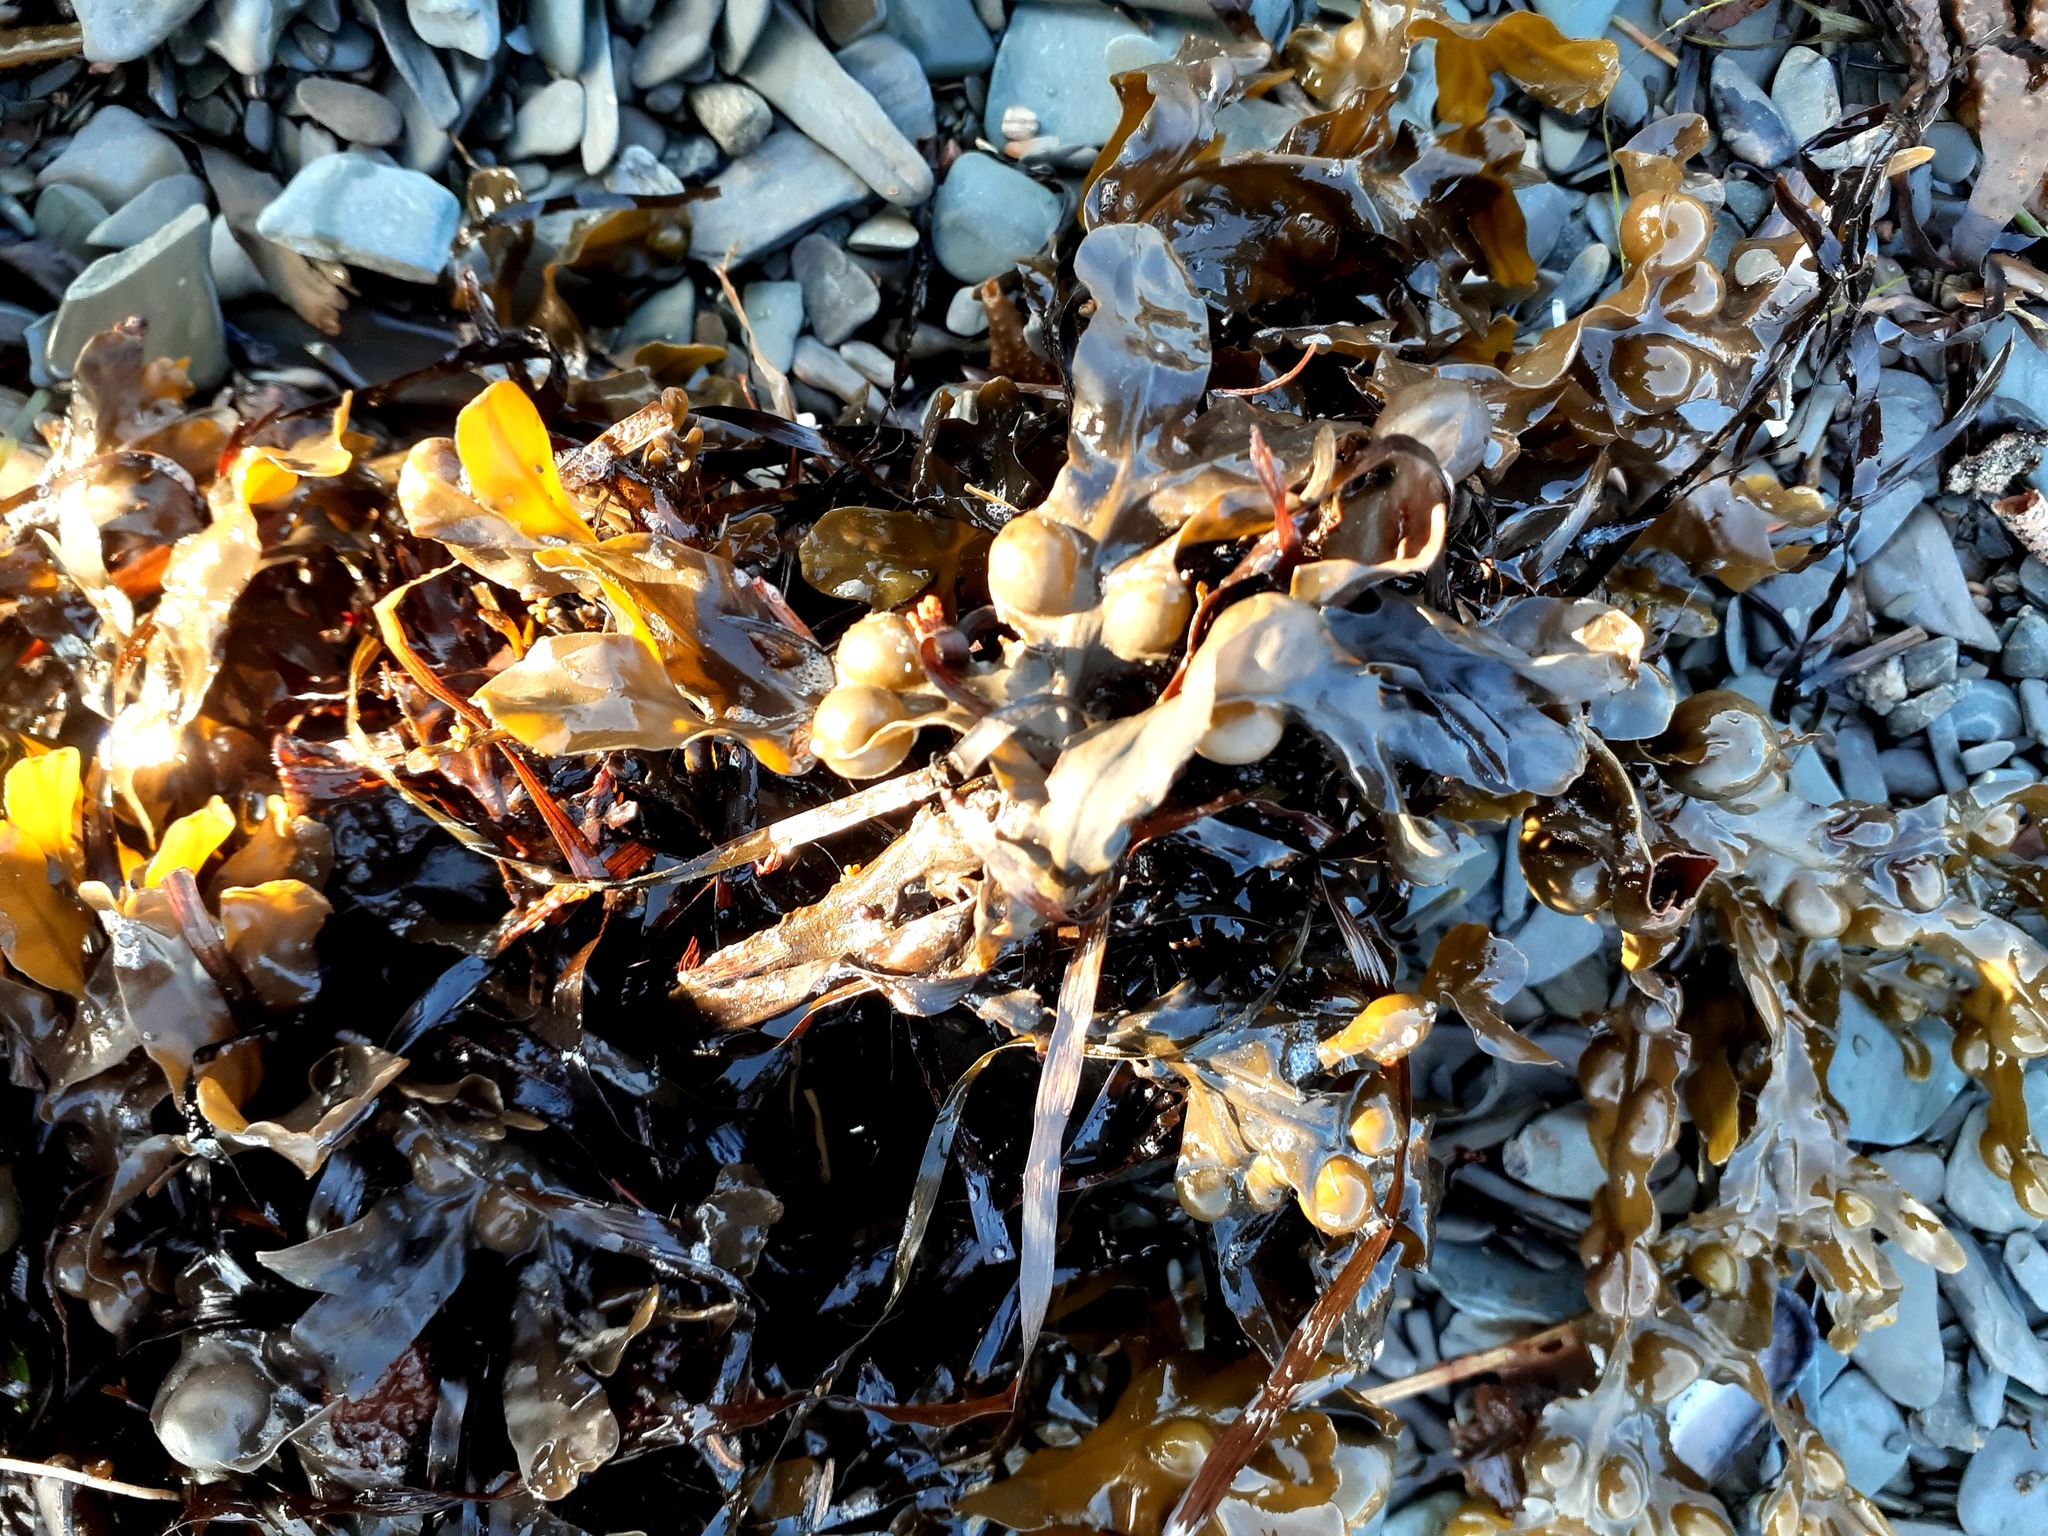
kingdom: Chromista
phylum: Ochrophyta
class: Phaeophyceae
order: Fucales
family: Fucaceae
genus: Fucus
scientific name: Fucus vesiculosus
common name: Bladder wrack
